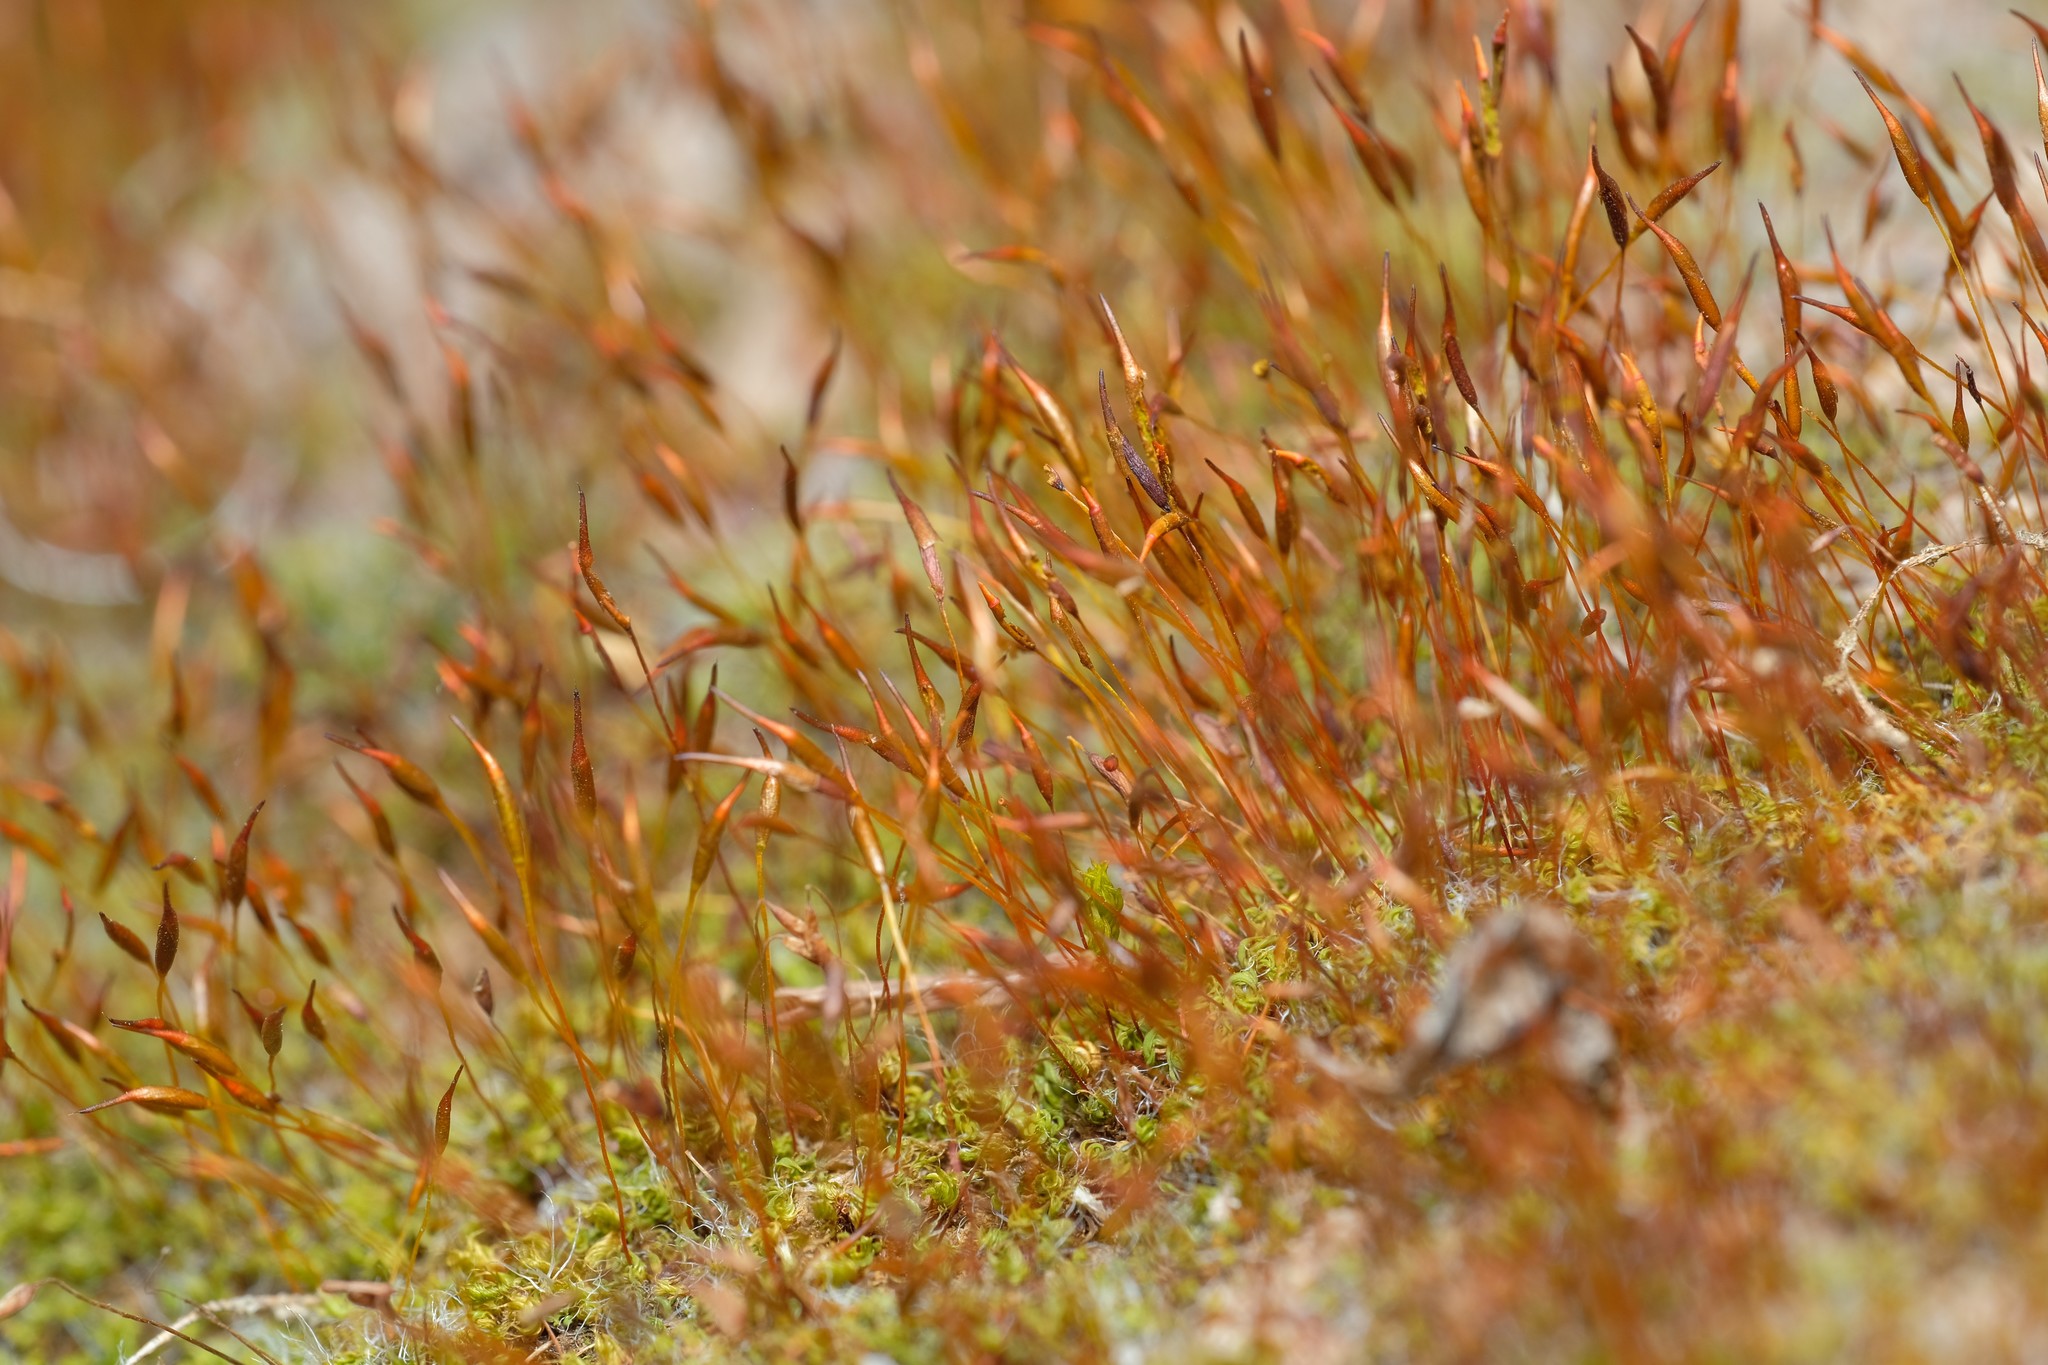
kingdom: Plantae
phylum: Bryophyta
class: Bryopsida
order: Pottiales
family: Pottiaceae
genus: Tortula
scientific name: Tortula muralis
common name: Wall screw-moss
